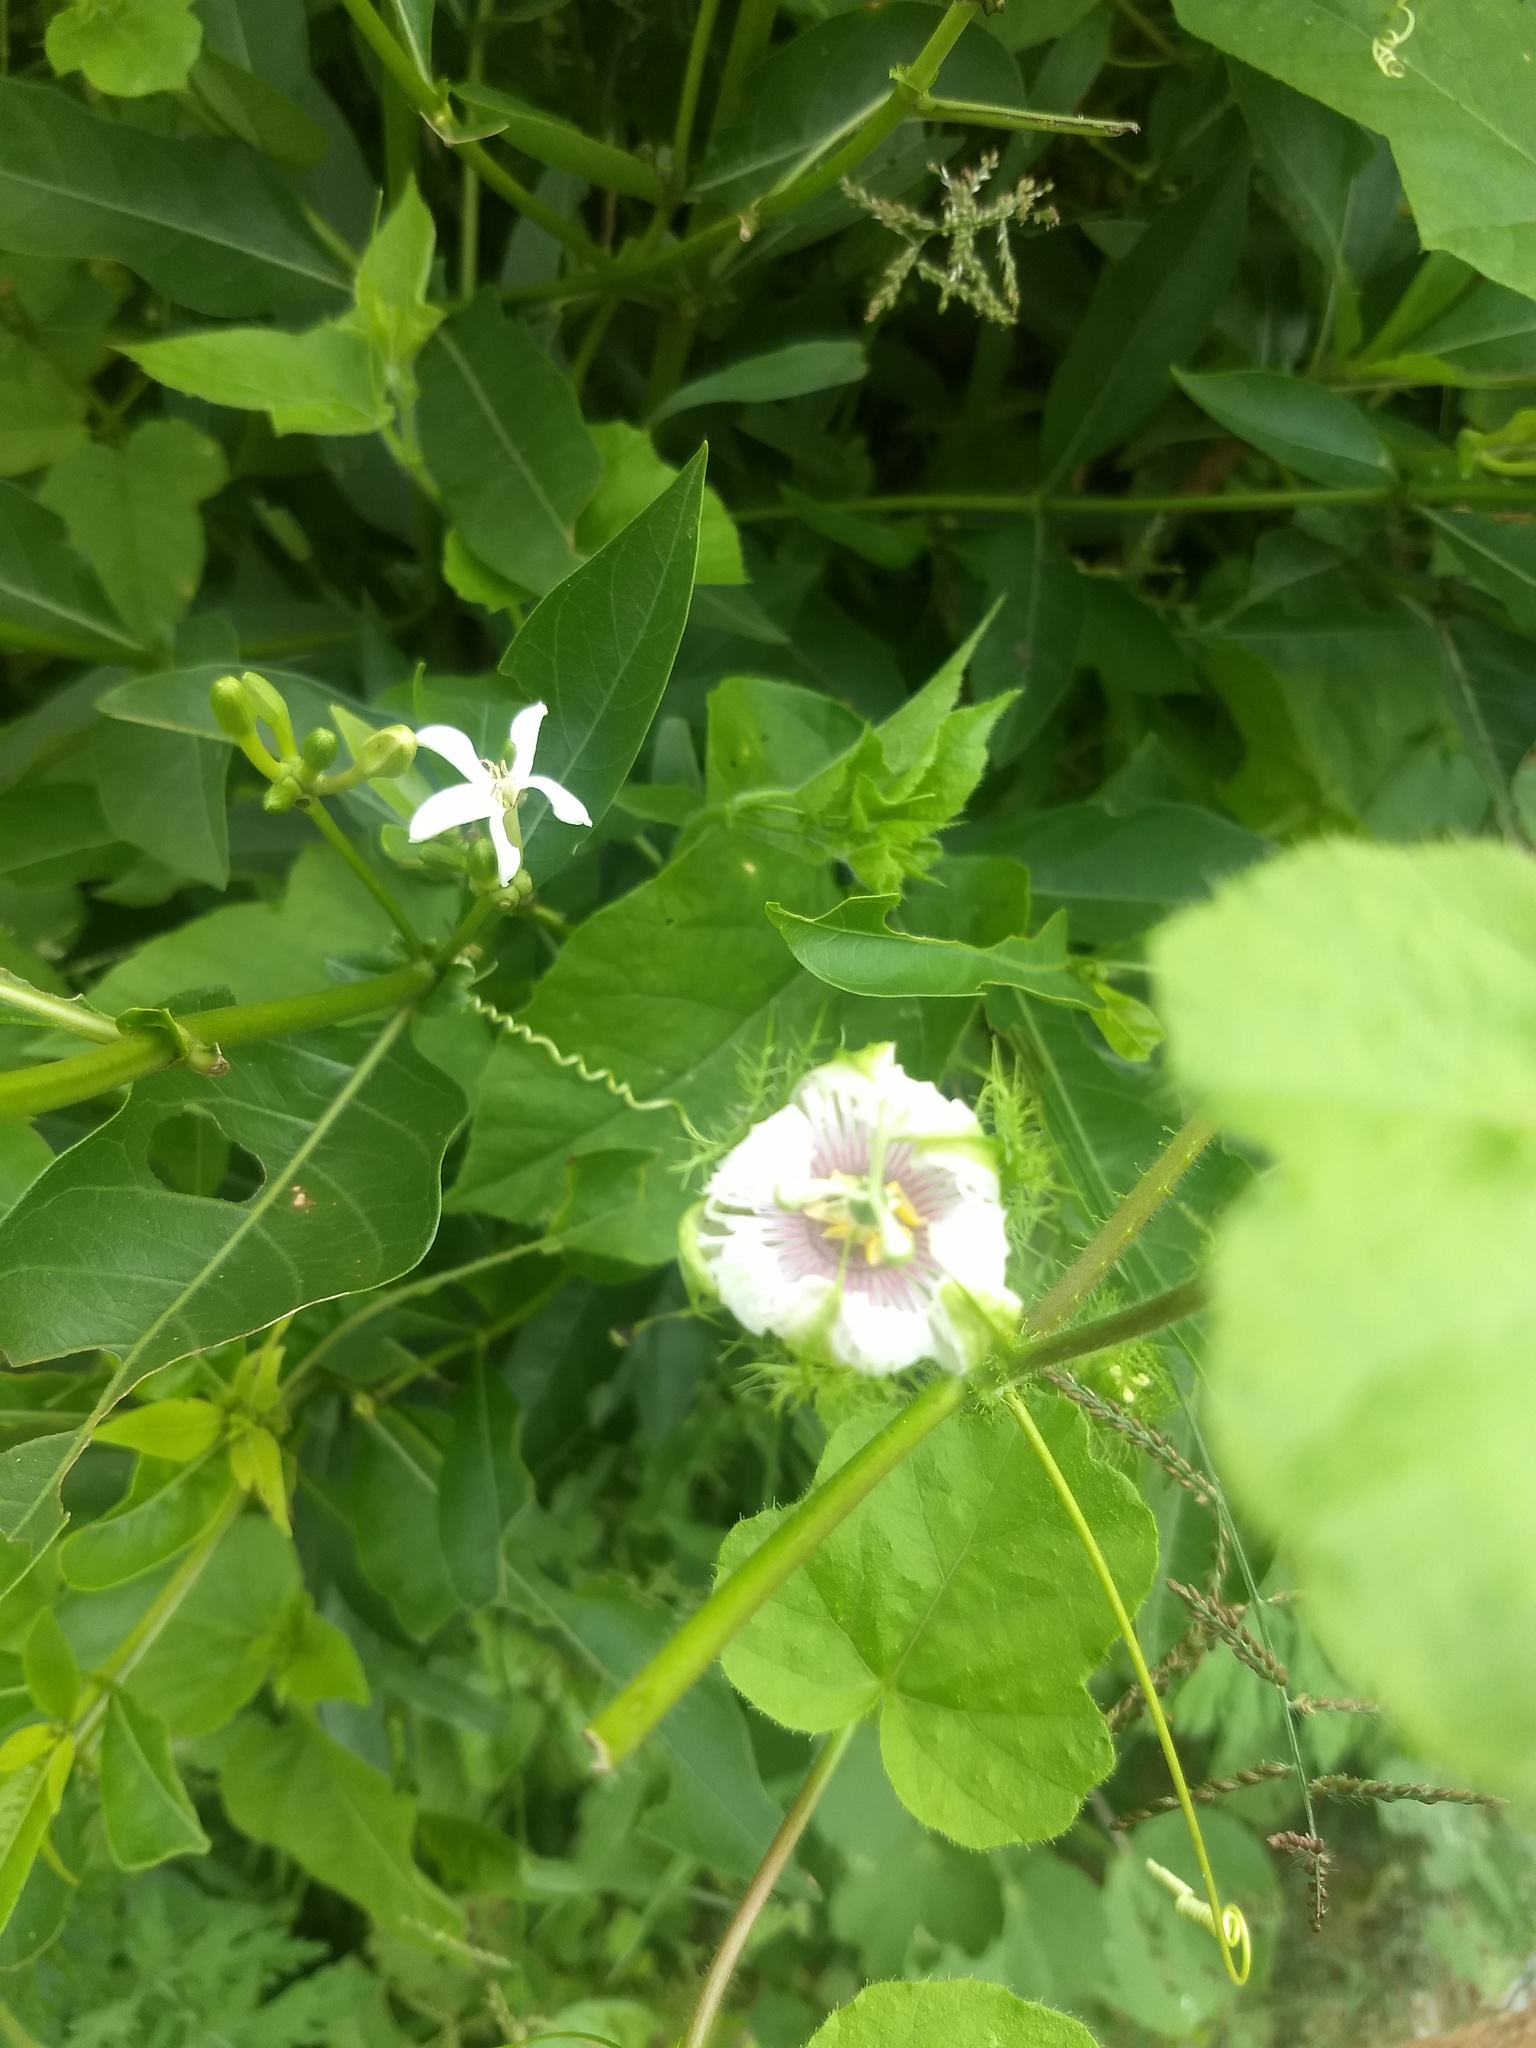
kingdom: Plantae
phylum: Tracheophyta
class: Magnoliopsida
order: Malpighiales
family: Passifloraceae
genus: Passiflora
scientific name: Passiflora foetida
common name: Fetid passionflower
